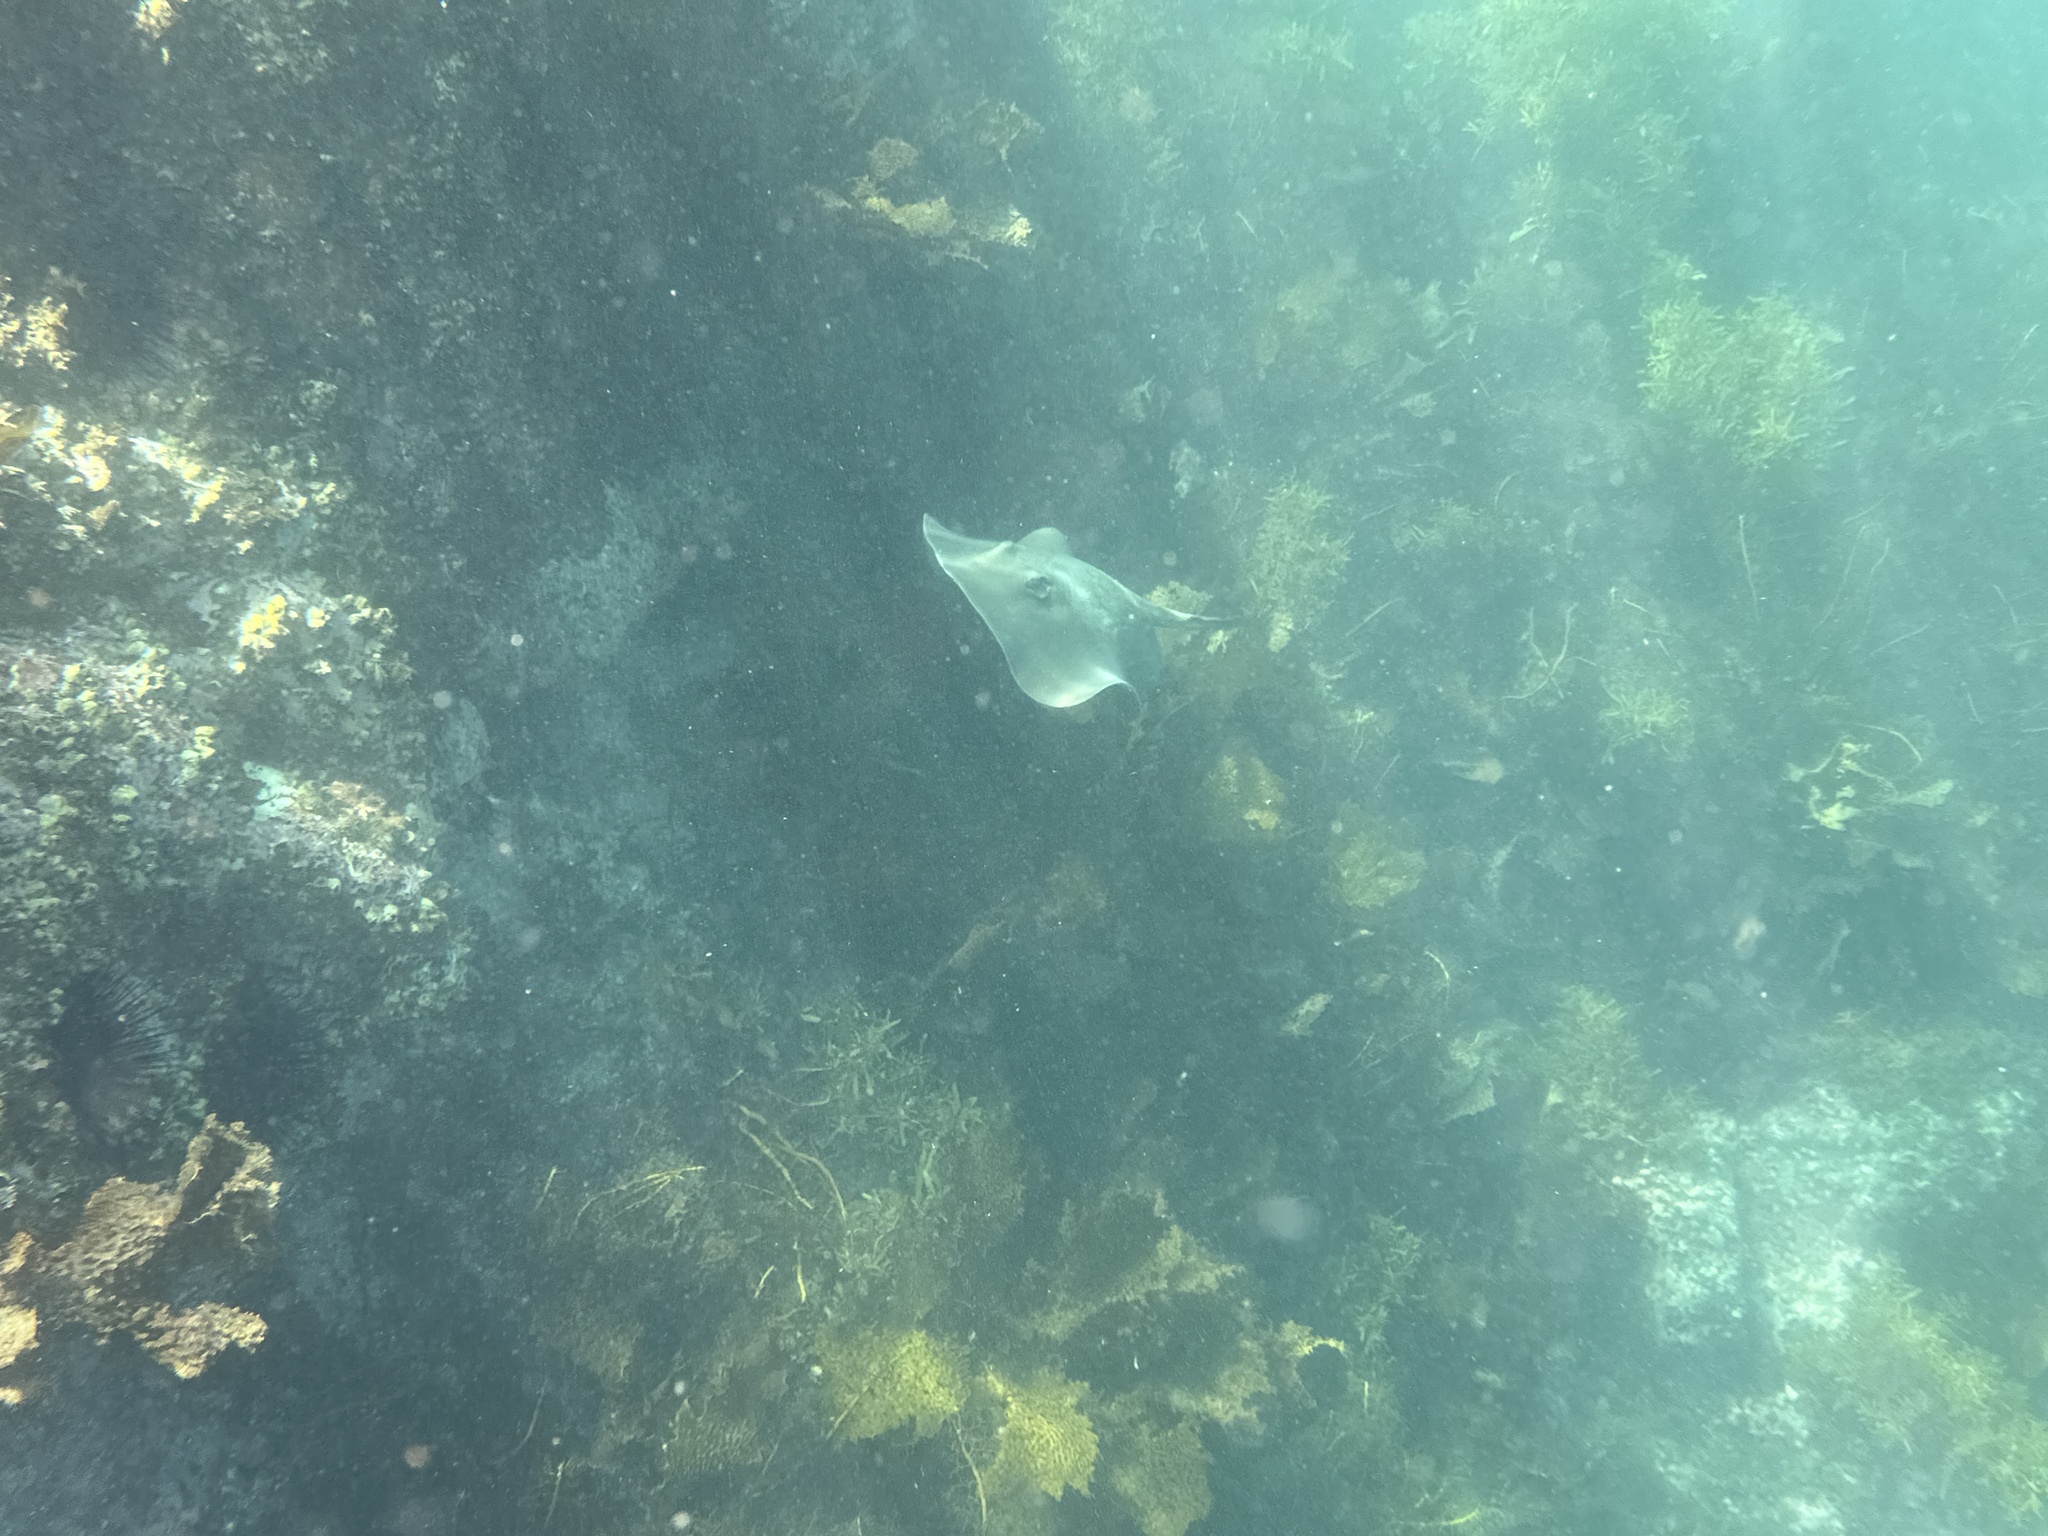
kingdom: Animalia
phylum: Chordata
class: Elasmobranchii
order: Myliobatiformes
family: Urolophidae
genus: Trygonoptera
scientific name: Trygonoptera testacea
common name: Common stingaree
